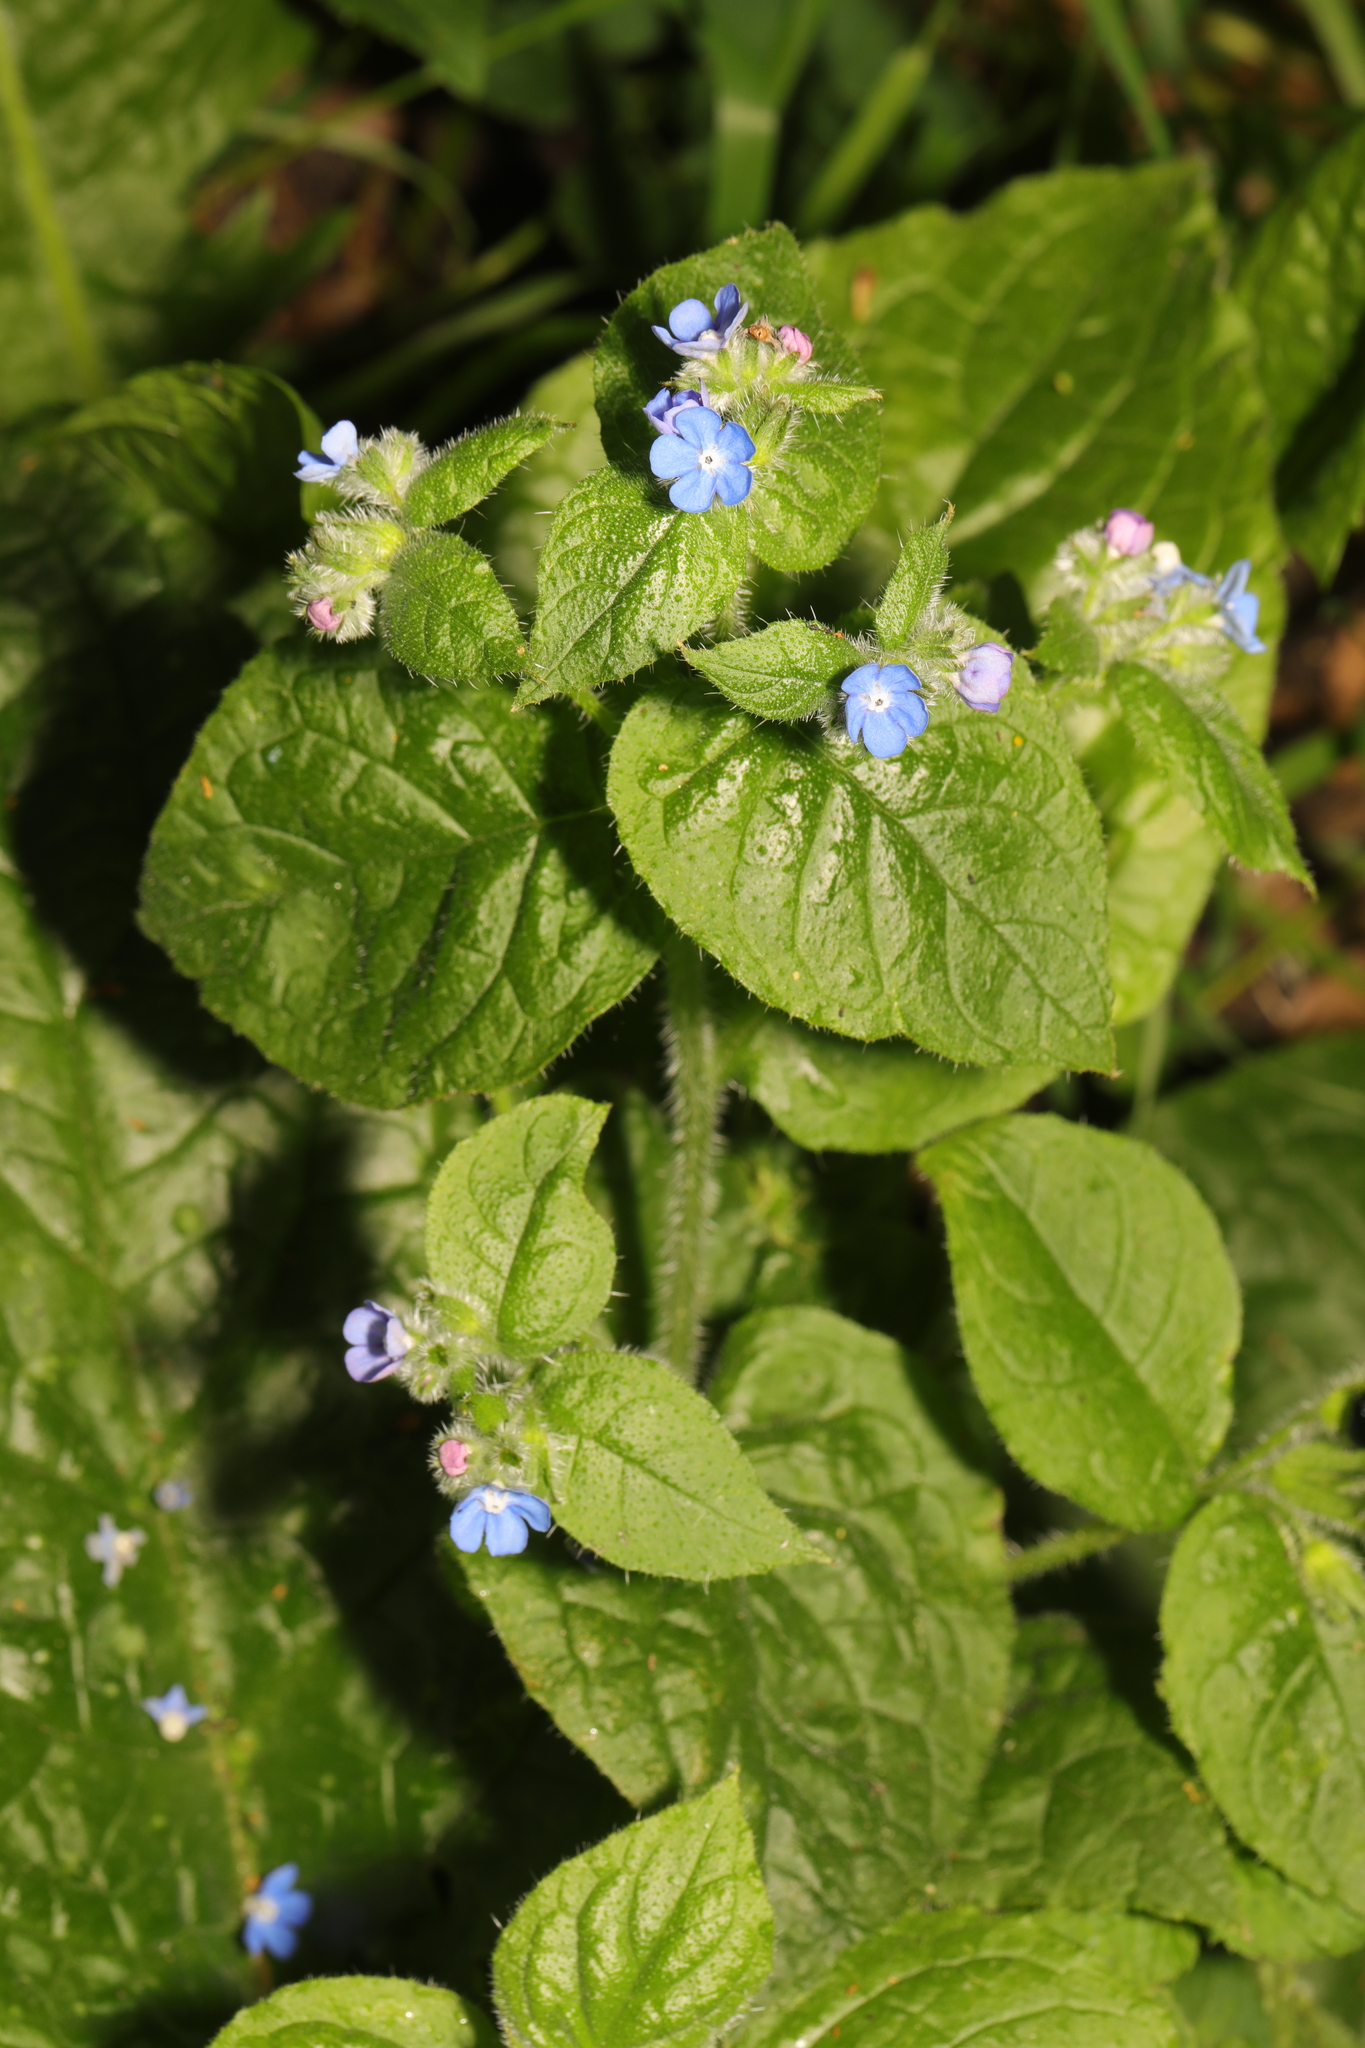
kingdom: Plantae
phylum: Tracheophyta
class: Magnoliopsida
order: Boraginales
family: Boraginaceae
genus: Pentaglottis
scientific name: Pentaglottis sempervirens
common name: Green alkanet
